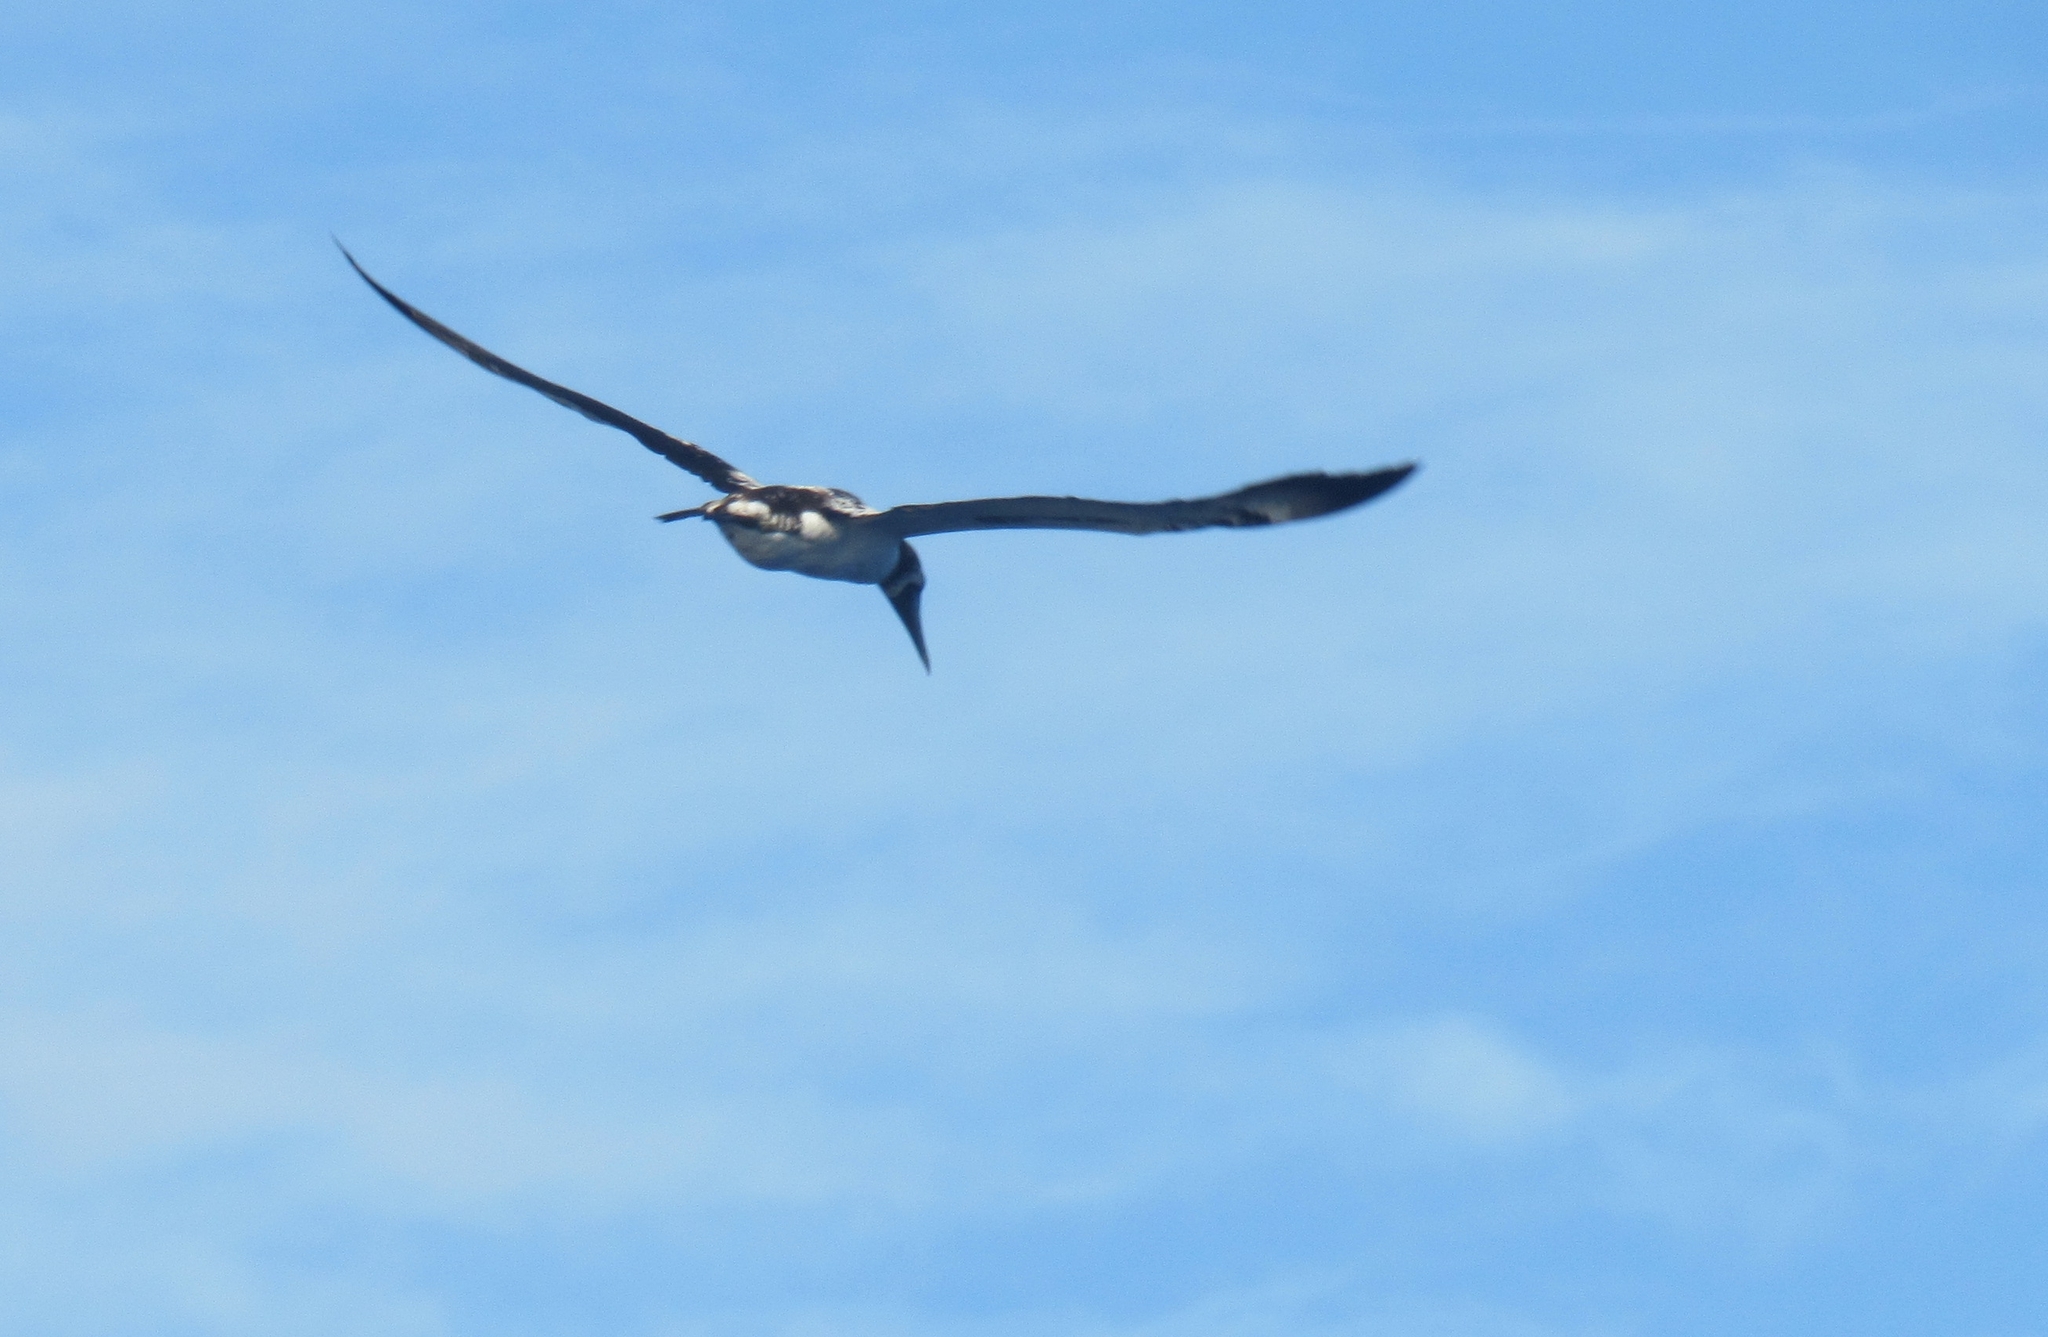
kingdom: Animalia
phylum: Chordata
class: Aves
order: Suliformes
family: Sulidae
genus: Sula
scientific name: Sula dactylatra
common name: Masked booby
